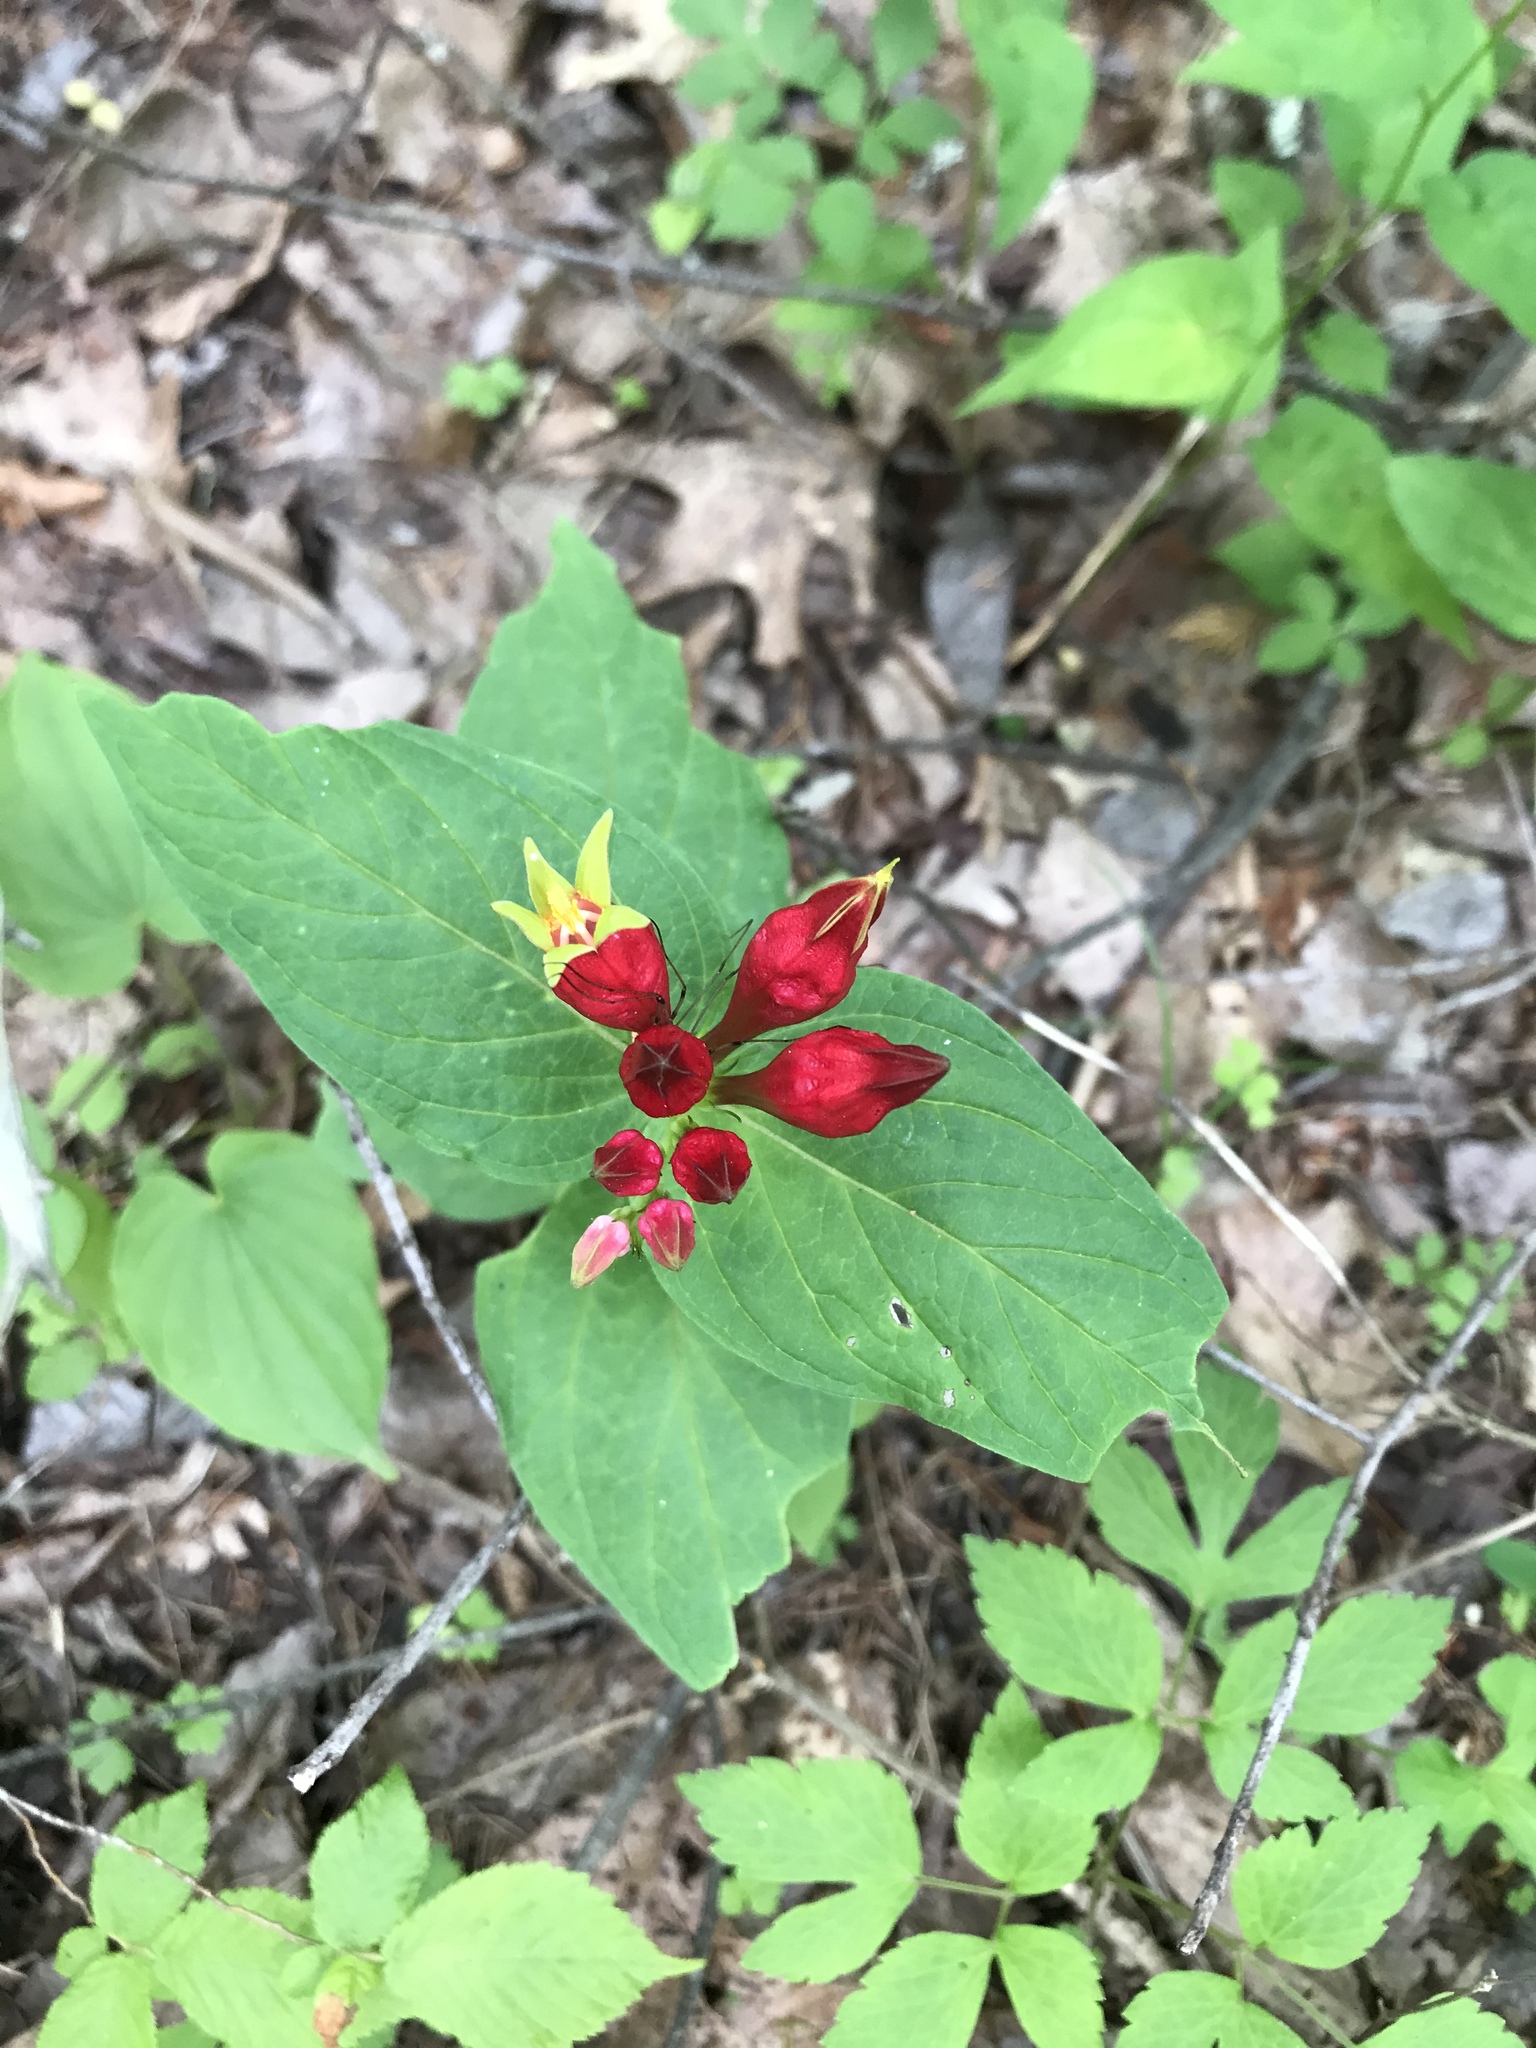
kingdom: Plantae
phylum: Tracheophyta
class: Magnoliopsida
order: Gentianales
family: Loganiaceae
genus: Spigelia
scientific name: Spigelia marilandica
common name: Indian-pink
